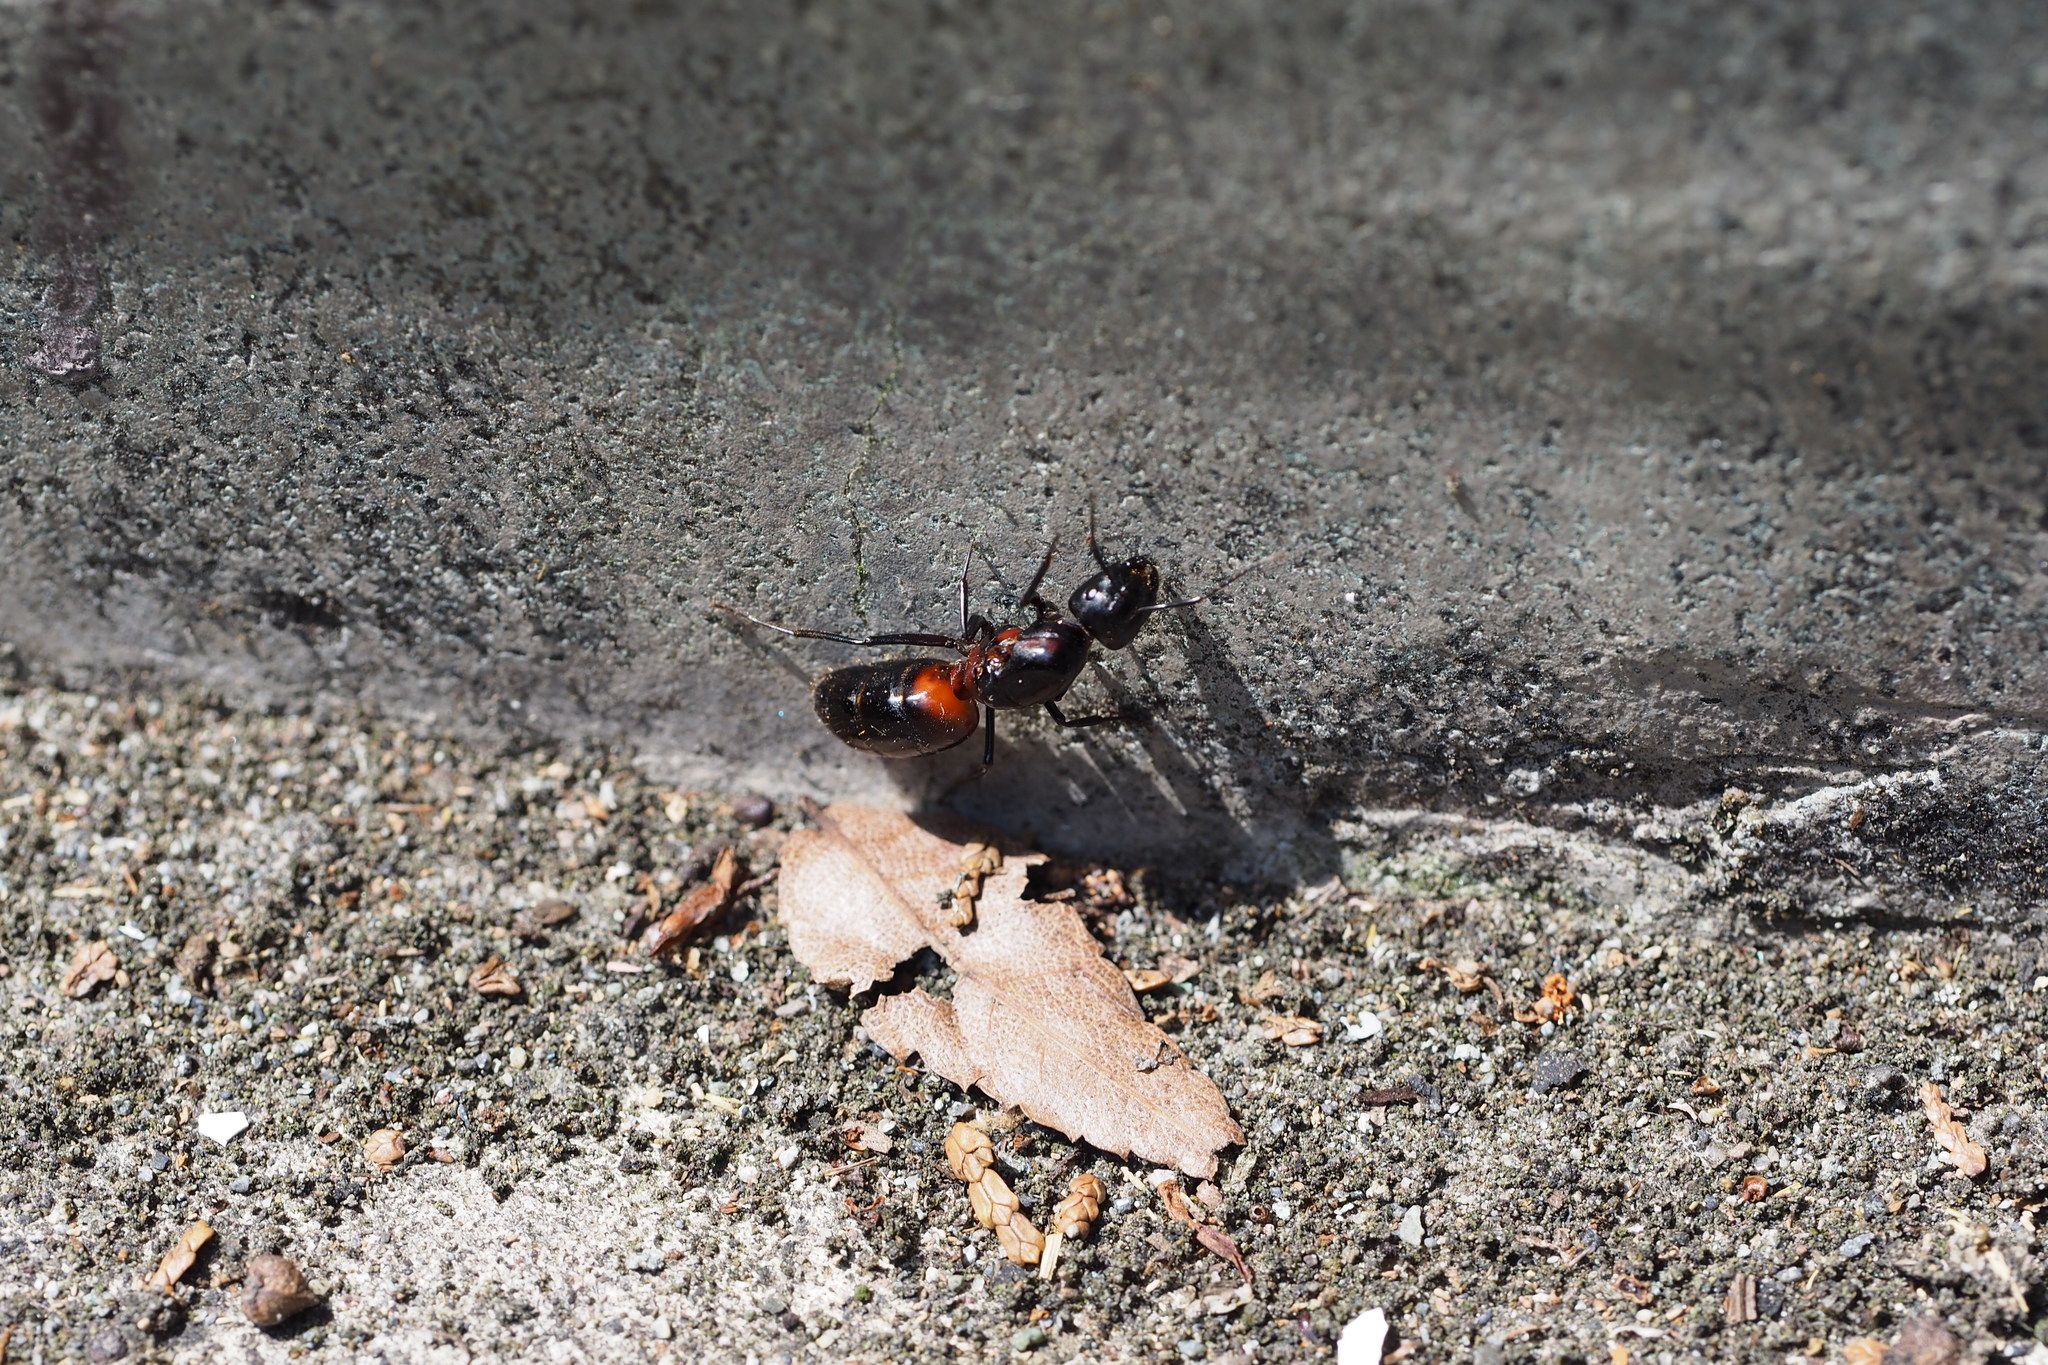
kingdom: Animalia
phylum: Arthropoda
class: Insecta
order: Hymenoptera
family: Formicidae
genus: Camponotus
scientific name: Camponotus obscuripes
